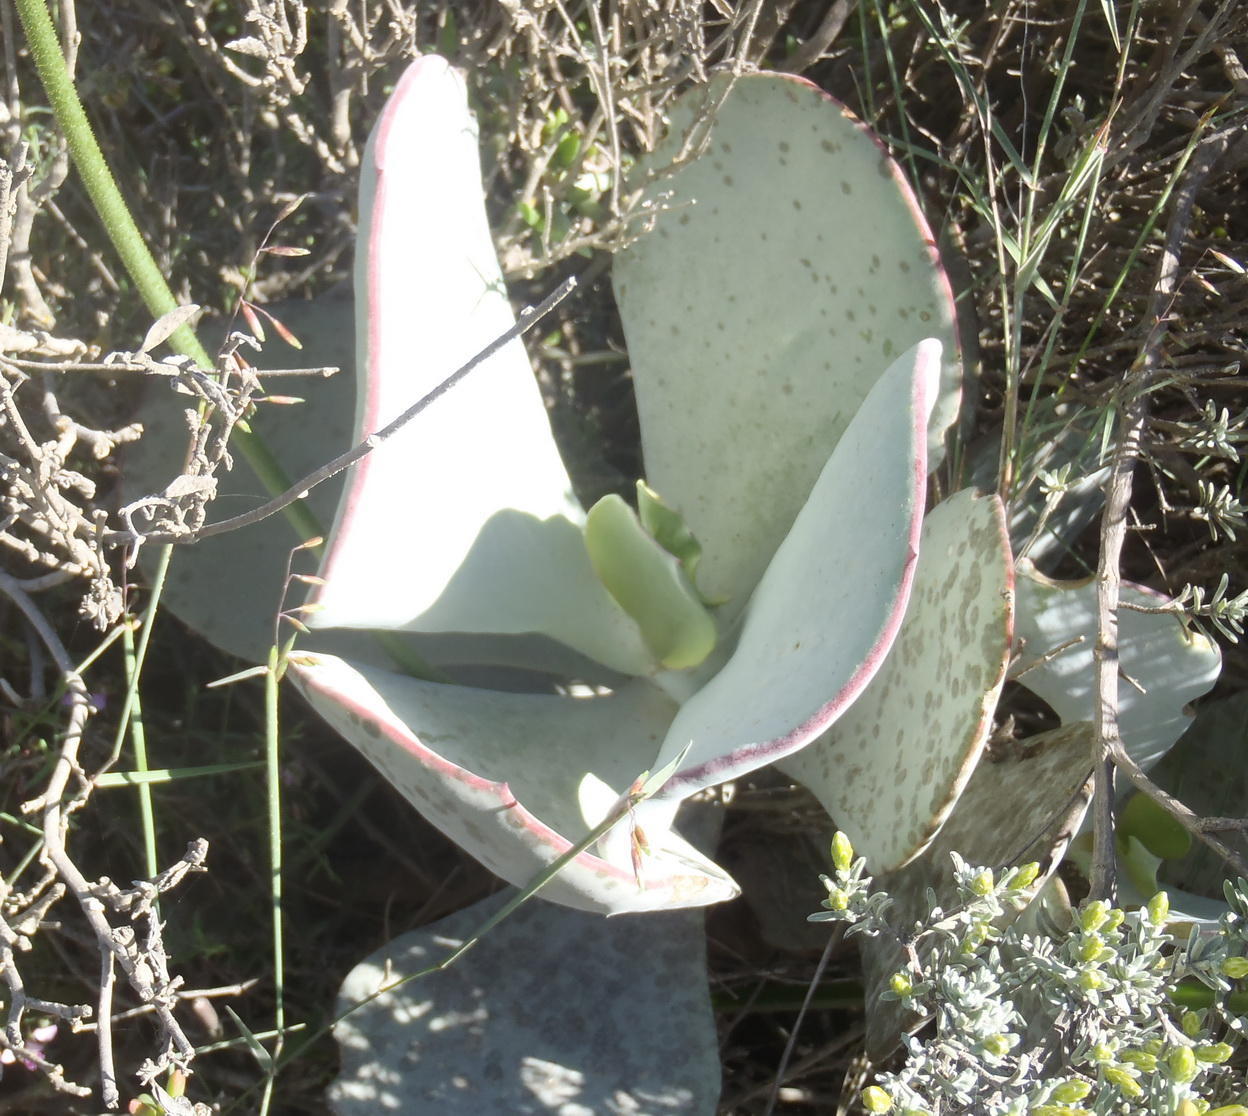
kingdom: Plantae
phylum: Tracheophyta
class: Magnoliopsida
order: Saxifragales
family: Crassulaceae
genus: Cotyledon
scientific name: Cotyledon orbiculata
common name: Pig's ear
